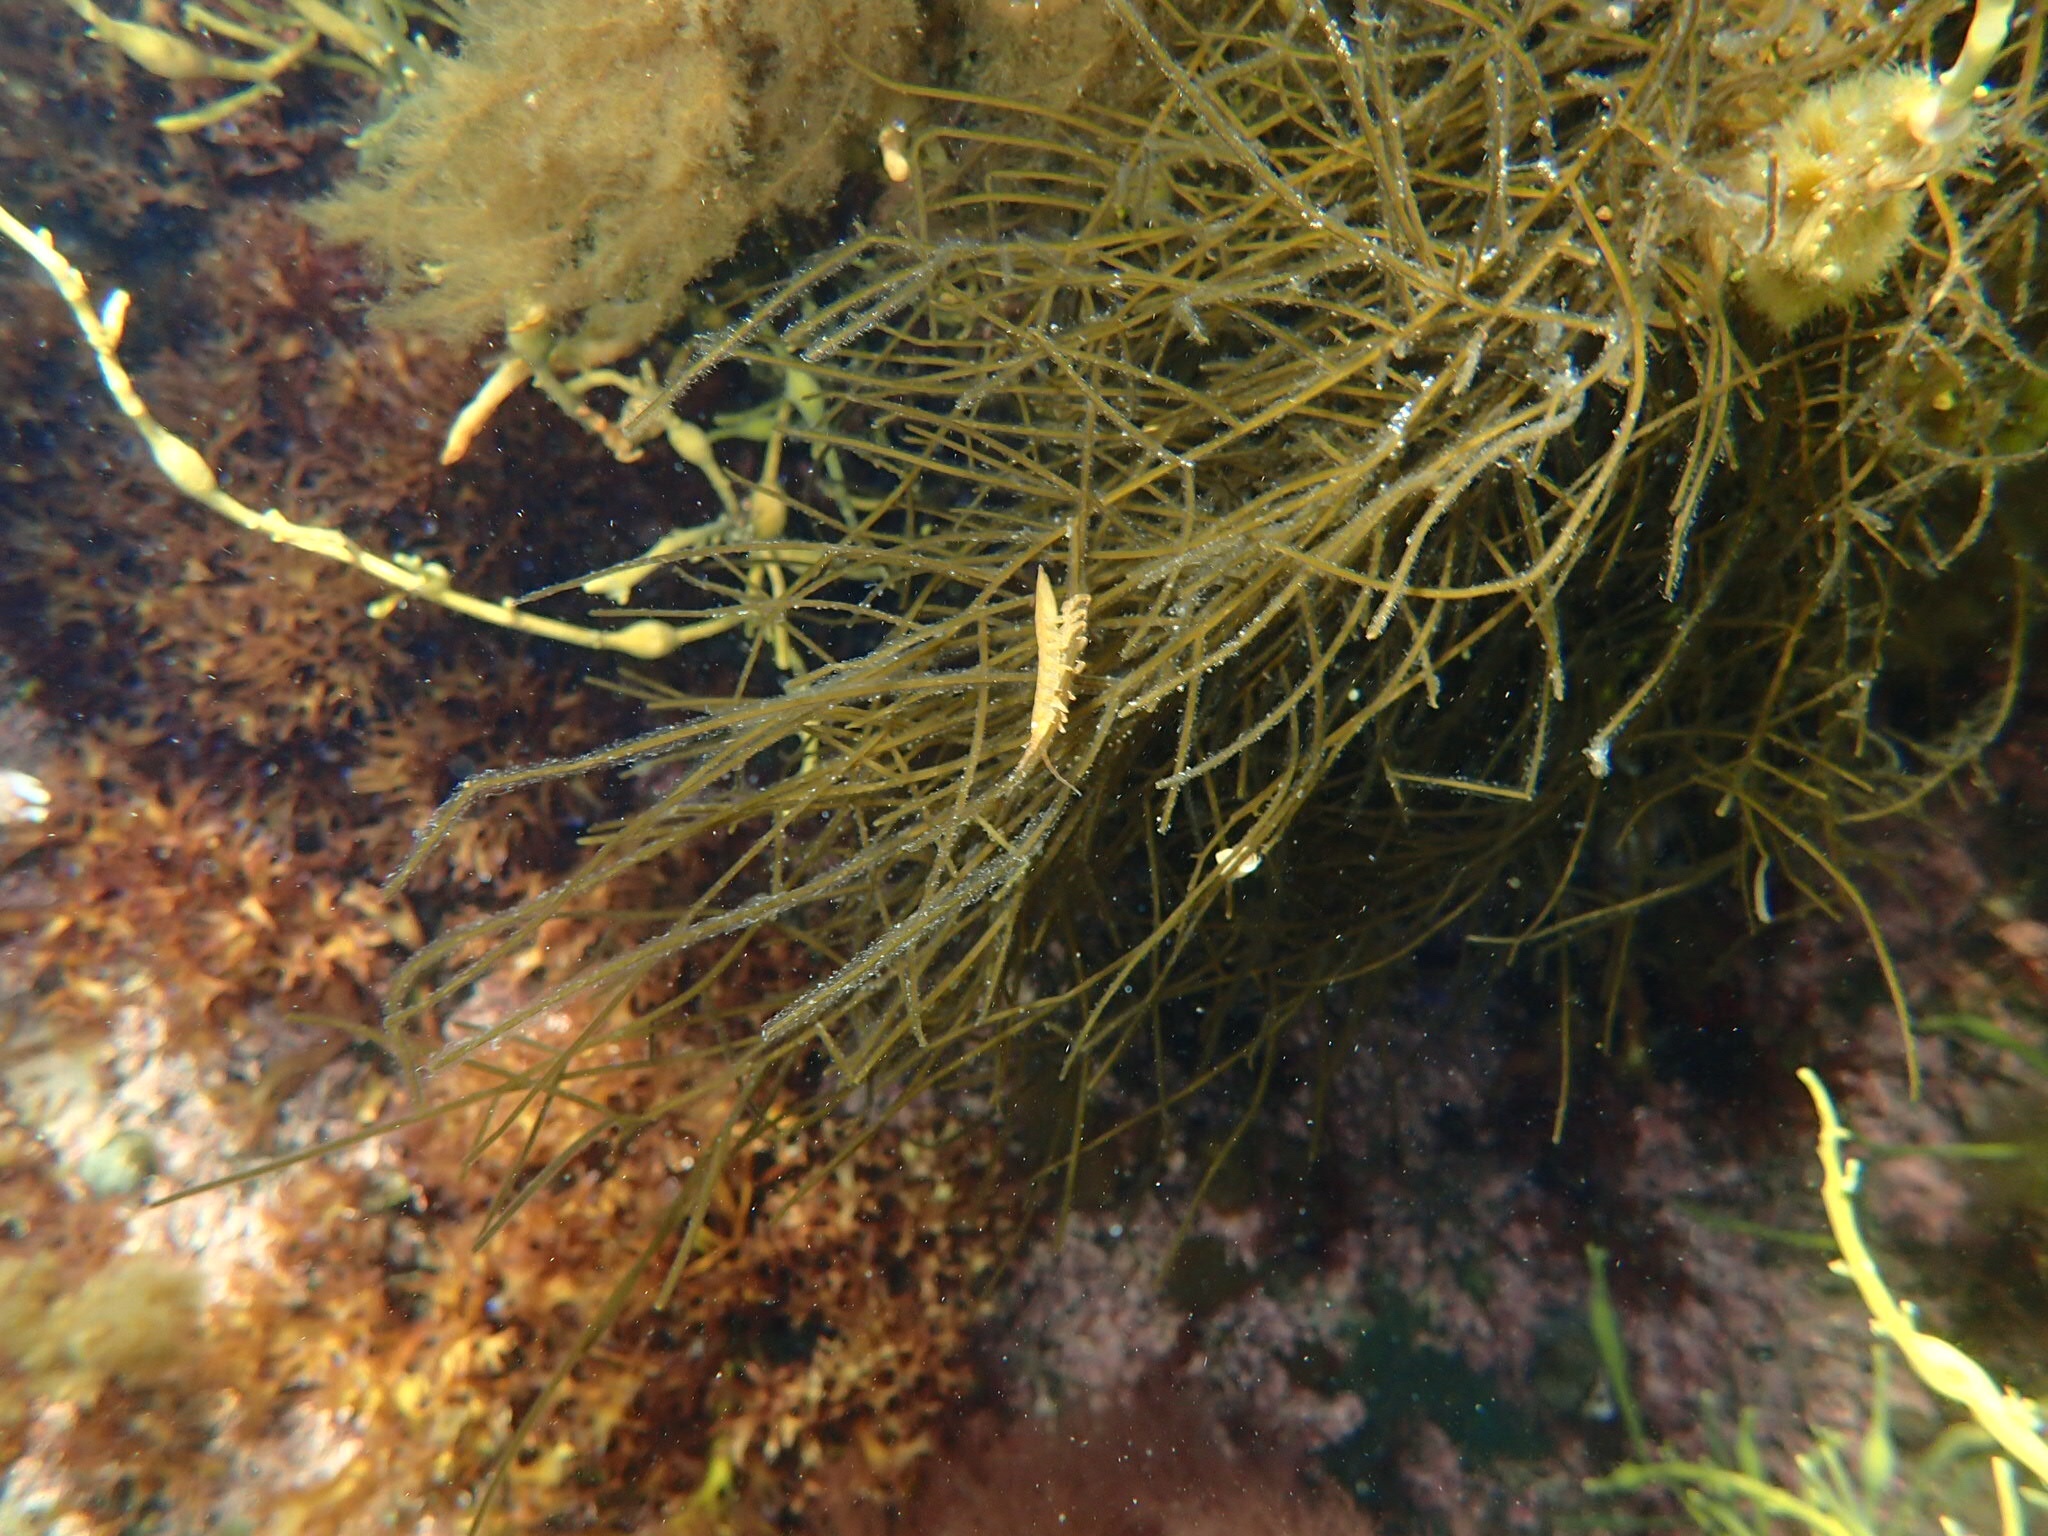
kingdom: Animalia
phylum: Arthropoda
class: Malacostraca
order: Isopoda
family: Idoteidae
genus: Idotea
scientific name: Idotea balthica
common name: Baltic isopod
